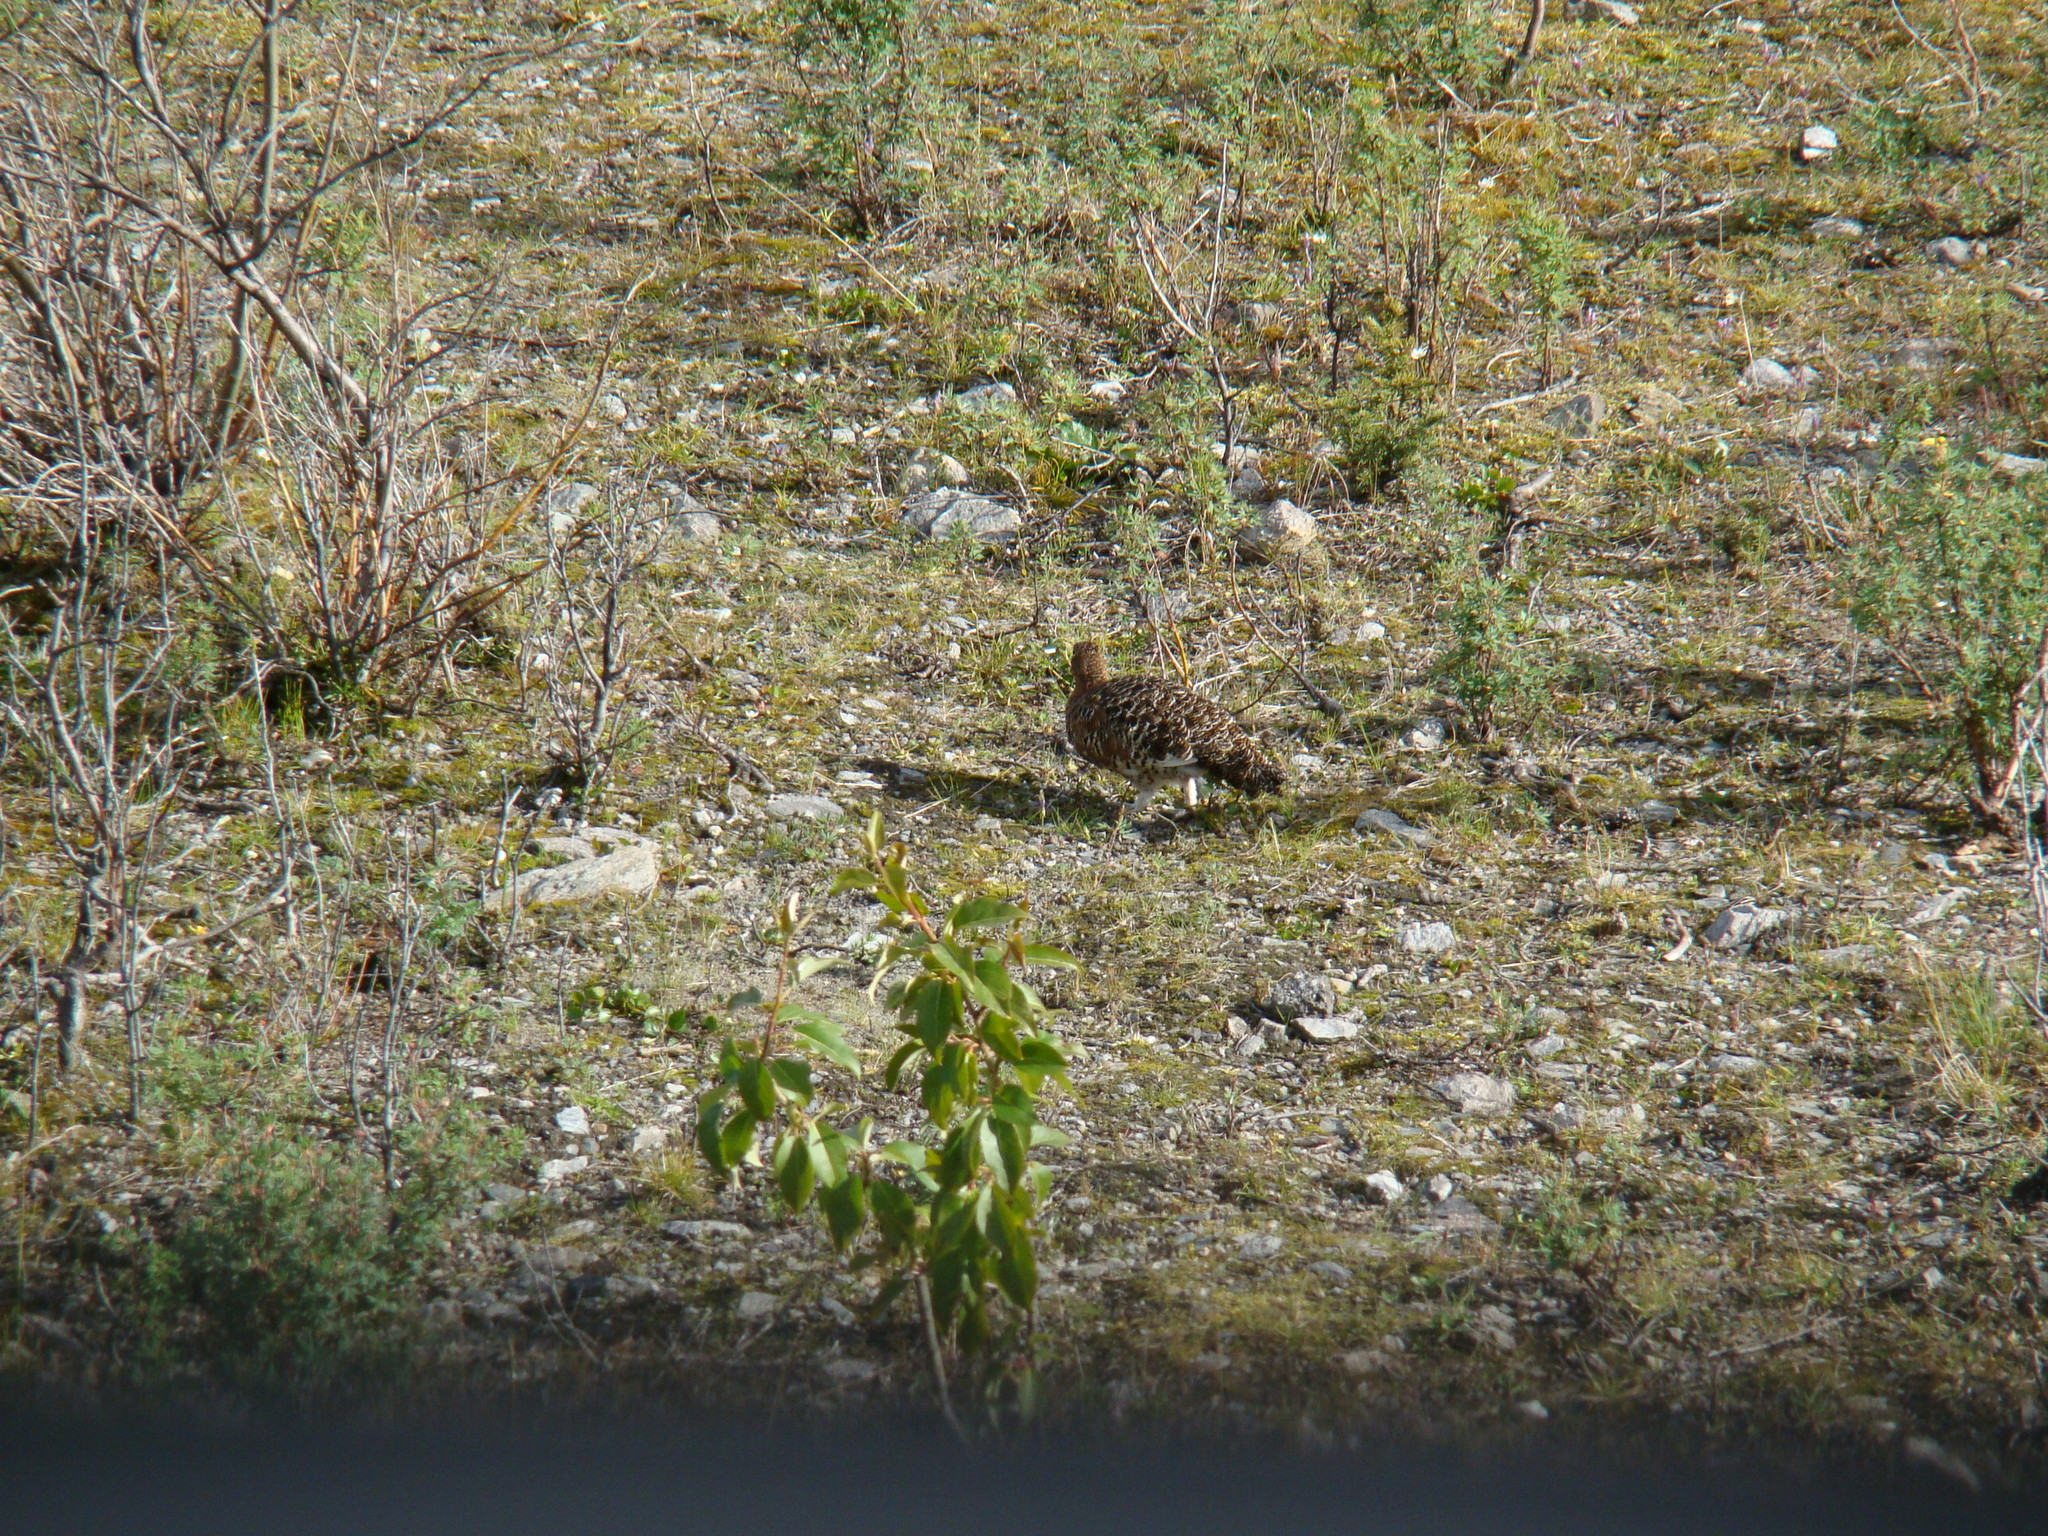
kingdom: Animalia
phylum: Chordata
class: Aves
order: Galliformes
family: Phasianidae
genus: Lagopus
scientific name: Lagopus lagopus
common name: Willow ptarmigan
